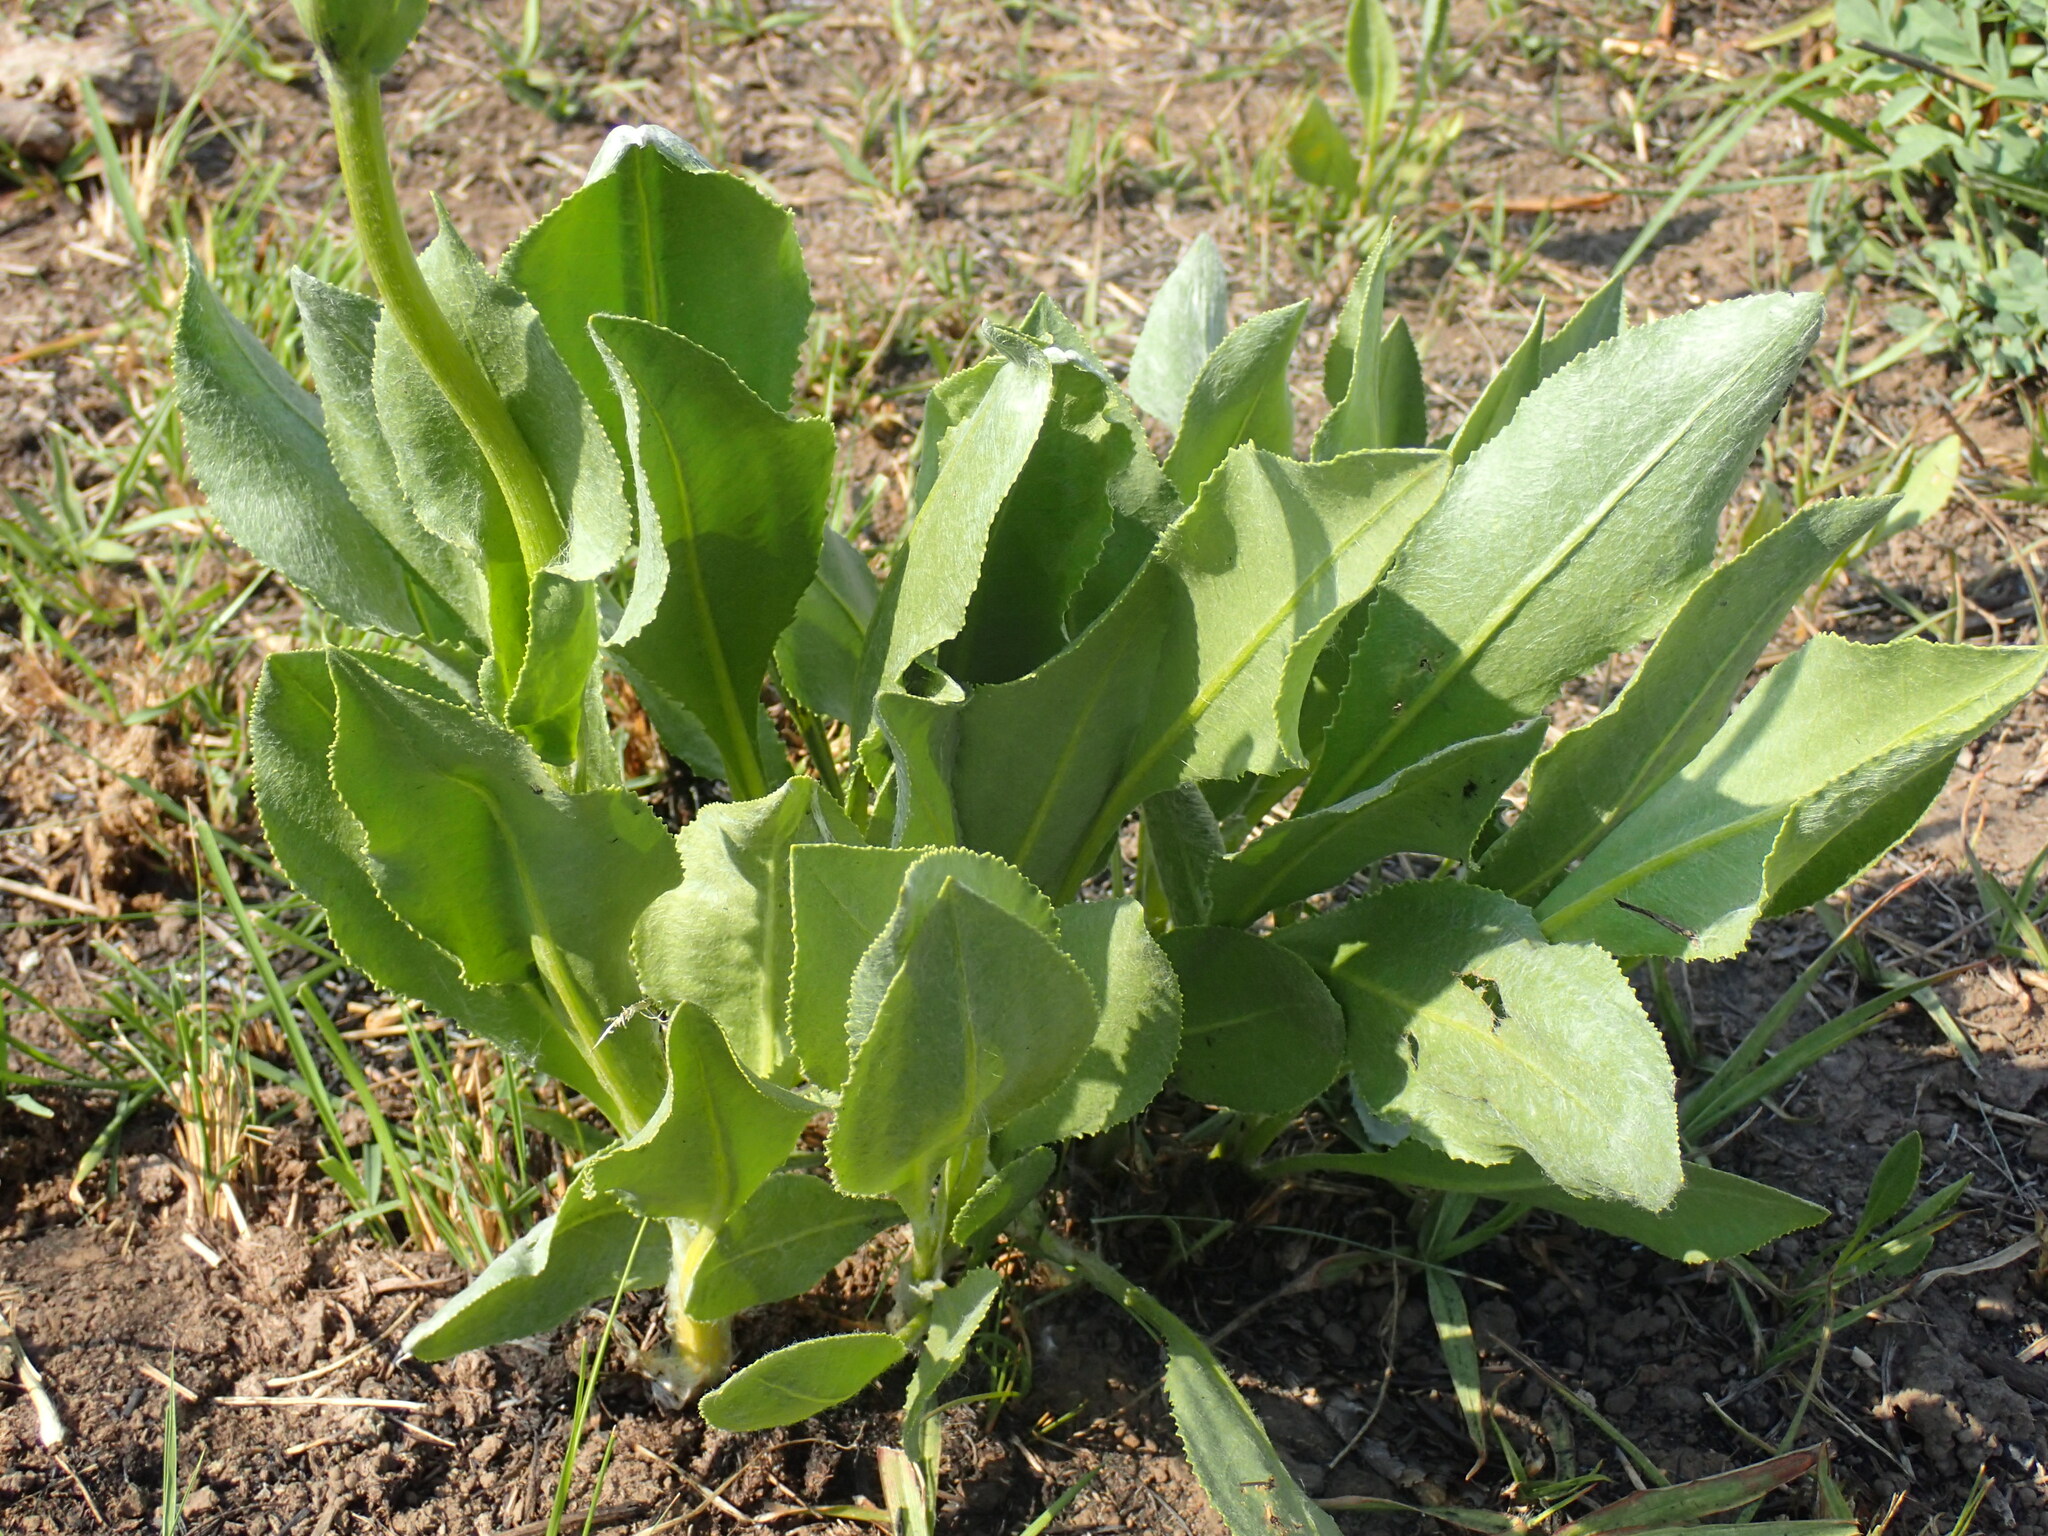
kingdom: Plantae
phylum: Tracheophyta
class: Magnoliopsida
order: Asterales
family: Asteraceae
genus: Senecio
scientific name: Senecio coronatus
